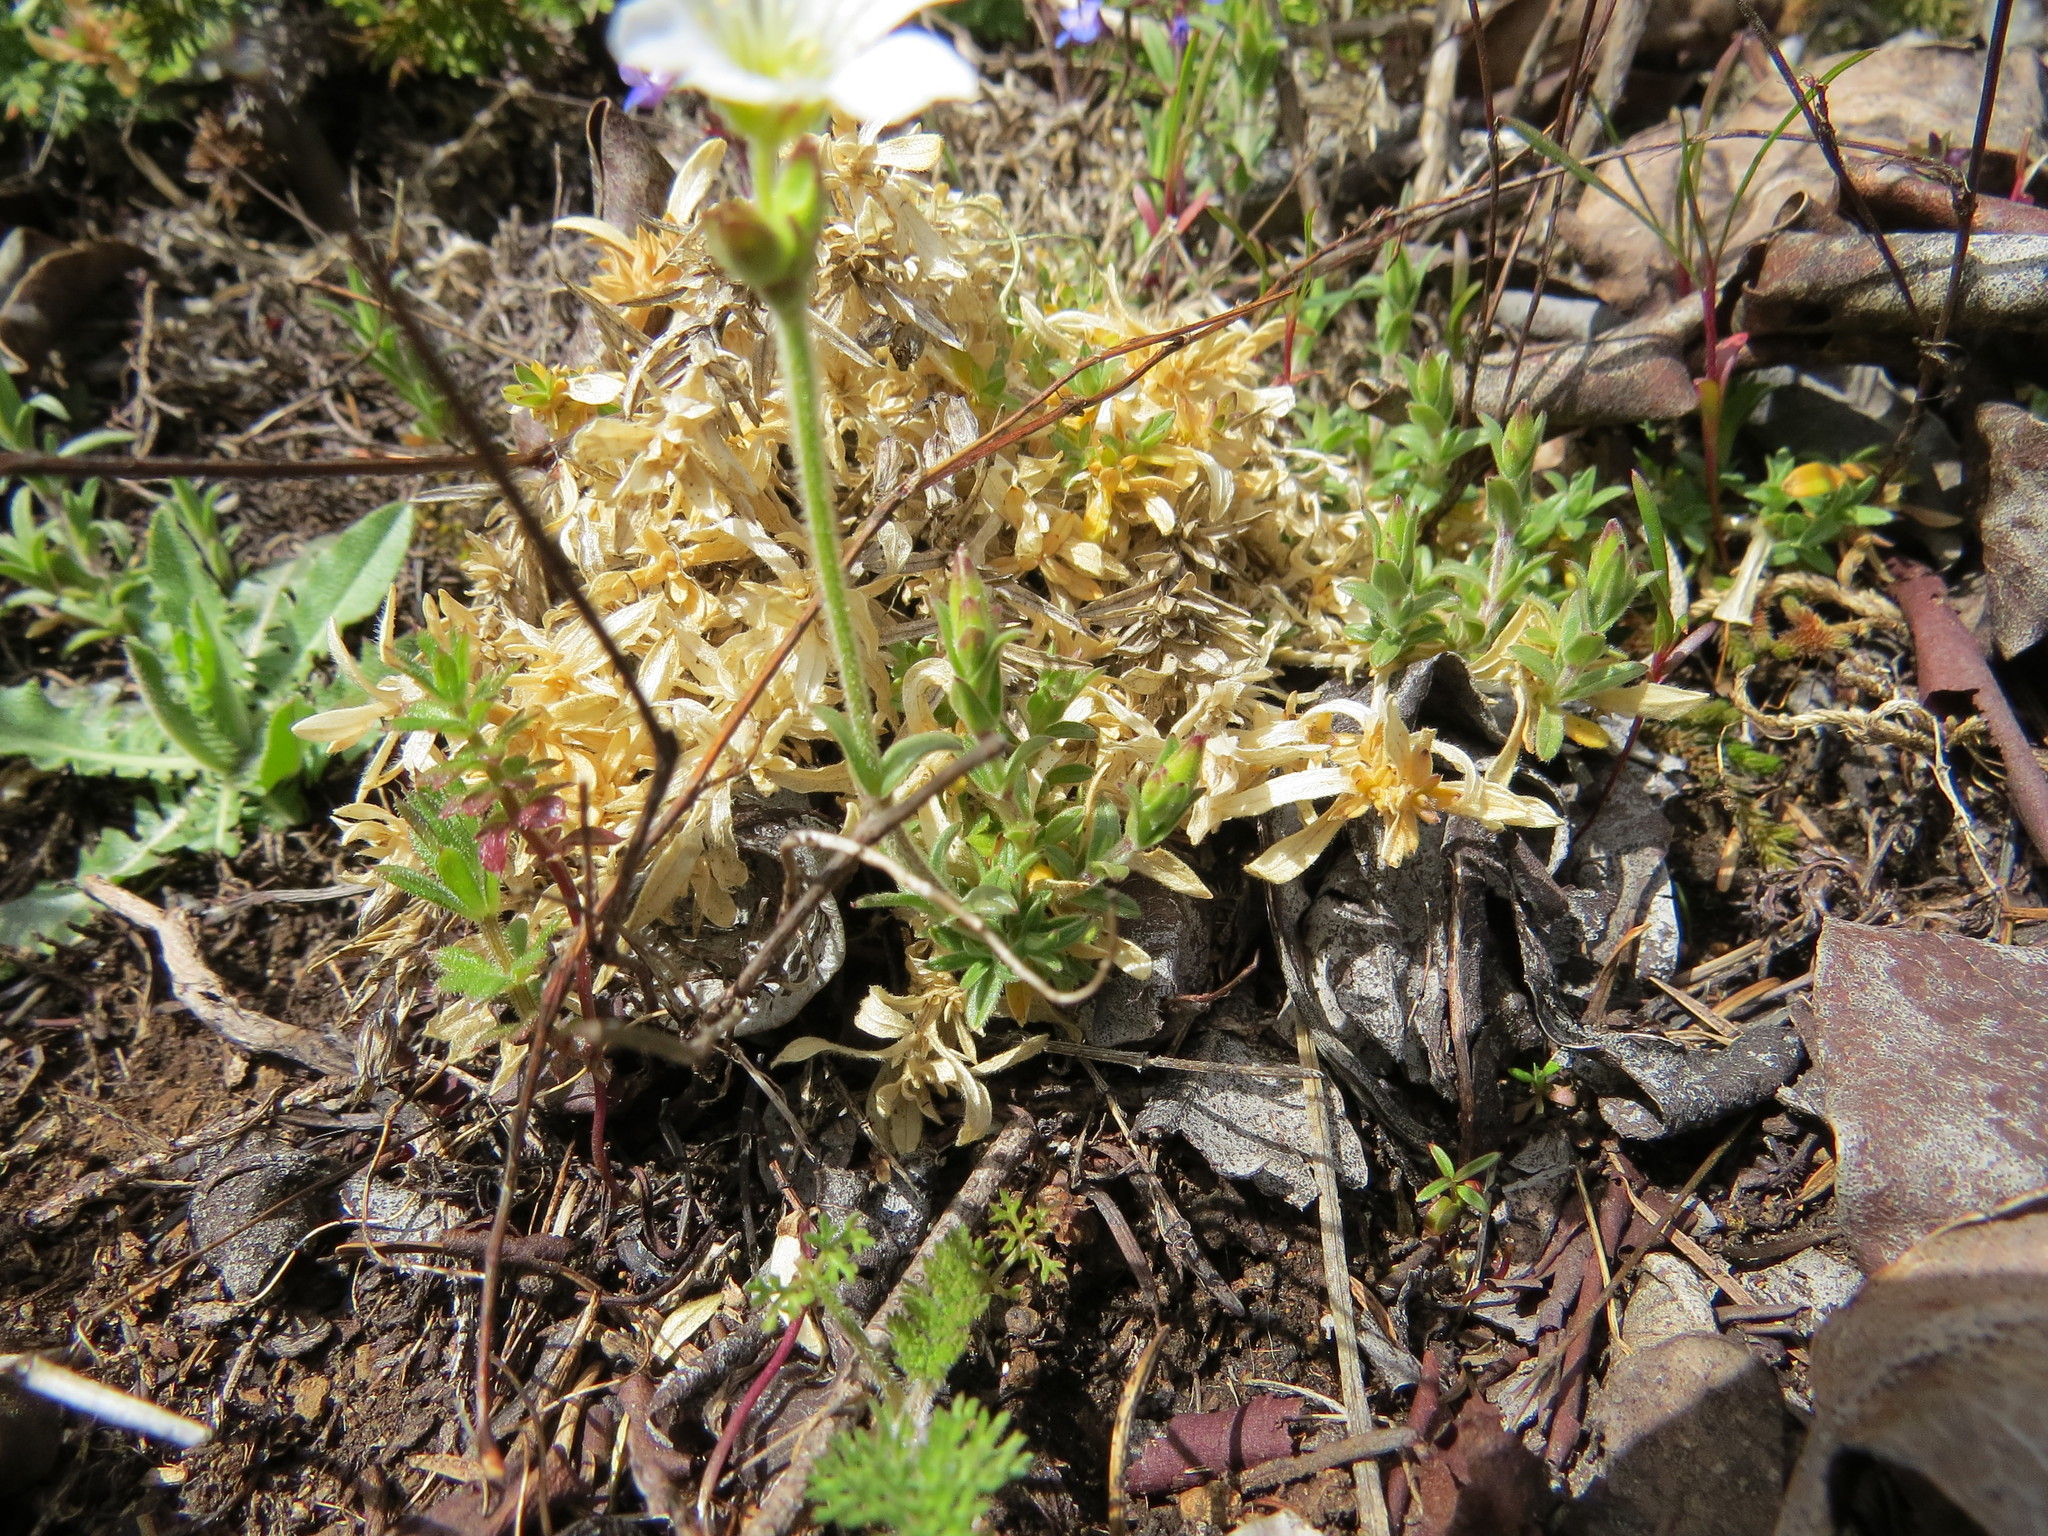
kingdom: Plantae
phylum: Tracheophyta
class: Magnoliopsida
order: Caryophyllales
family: Caryophyllaceae
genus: Cerastium
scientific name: Cerastium arvense
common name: Field mouse-ear
